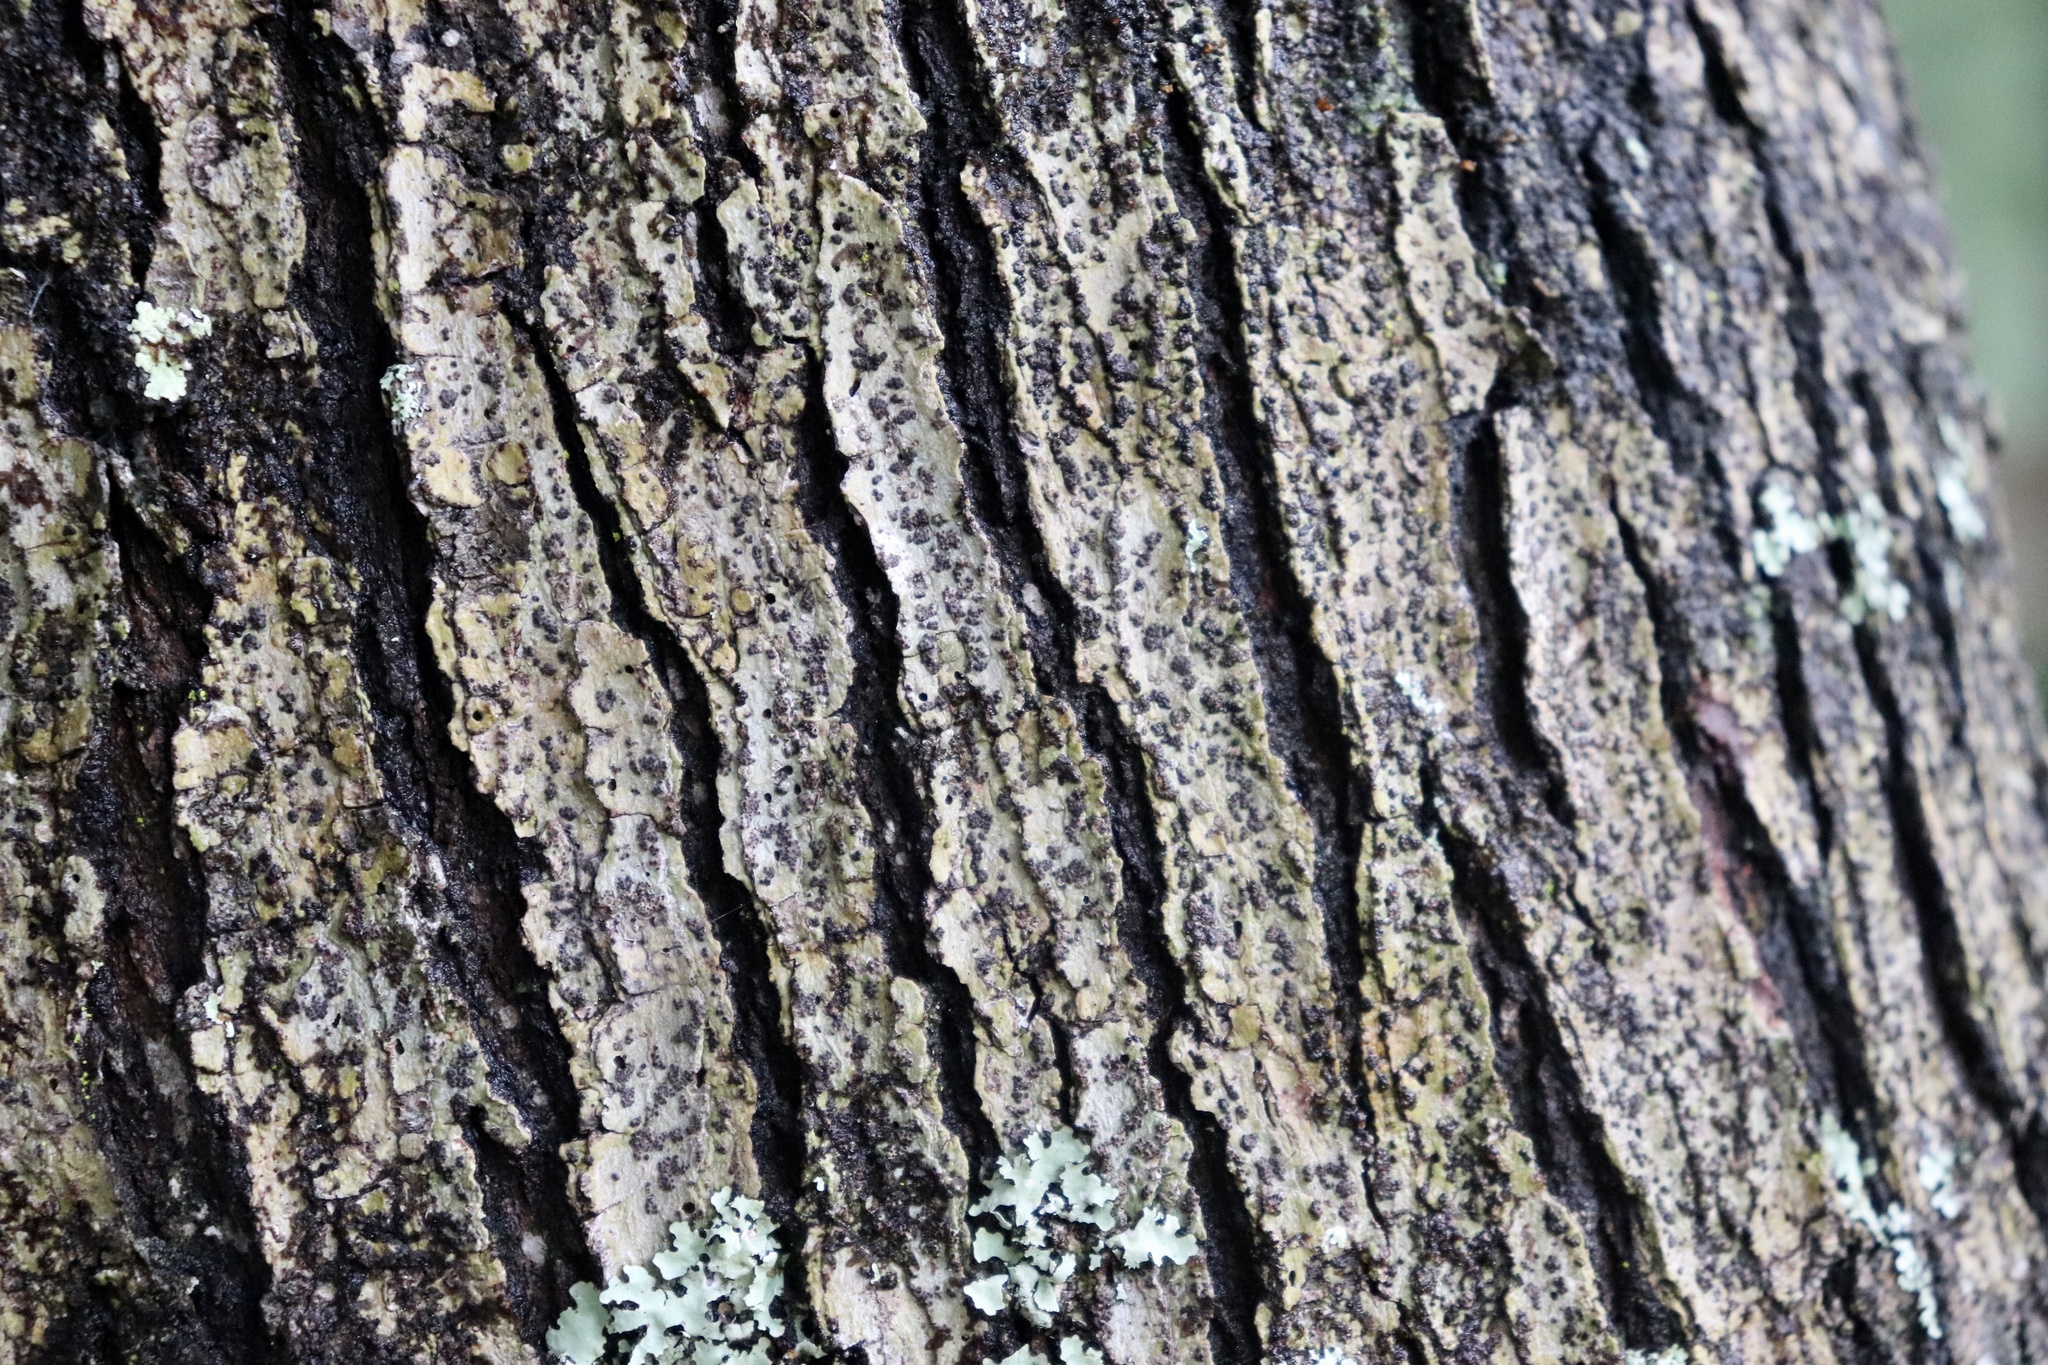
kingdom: Fungi
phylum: Ascomycota
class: Dothideomycetes
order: Trypetheliales
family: Trypetheliaceae
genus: Bathelium
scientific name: Bathelium carolinianum
